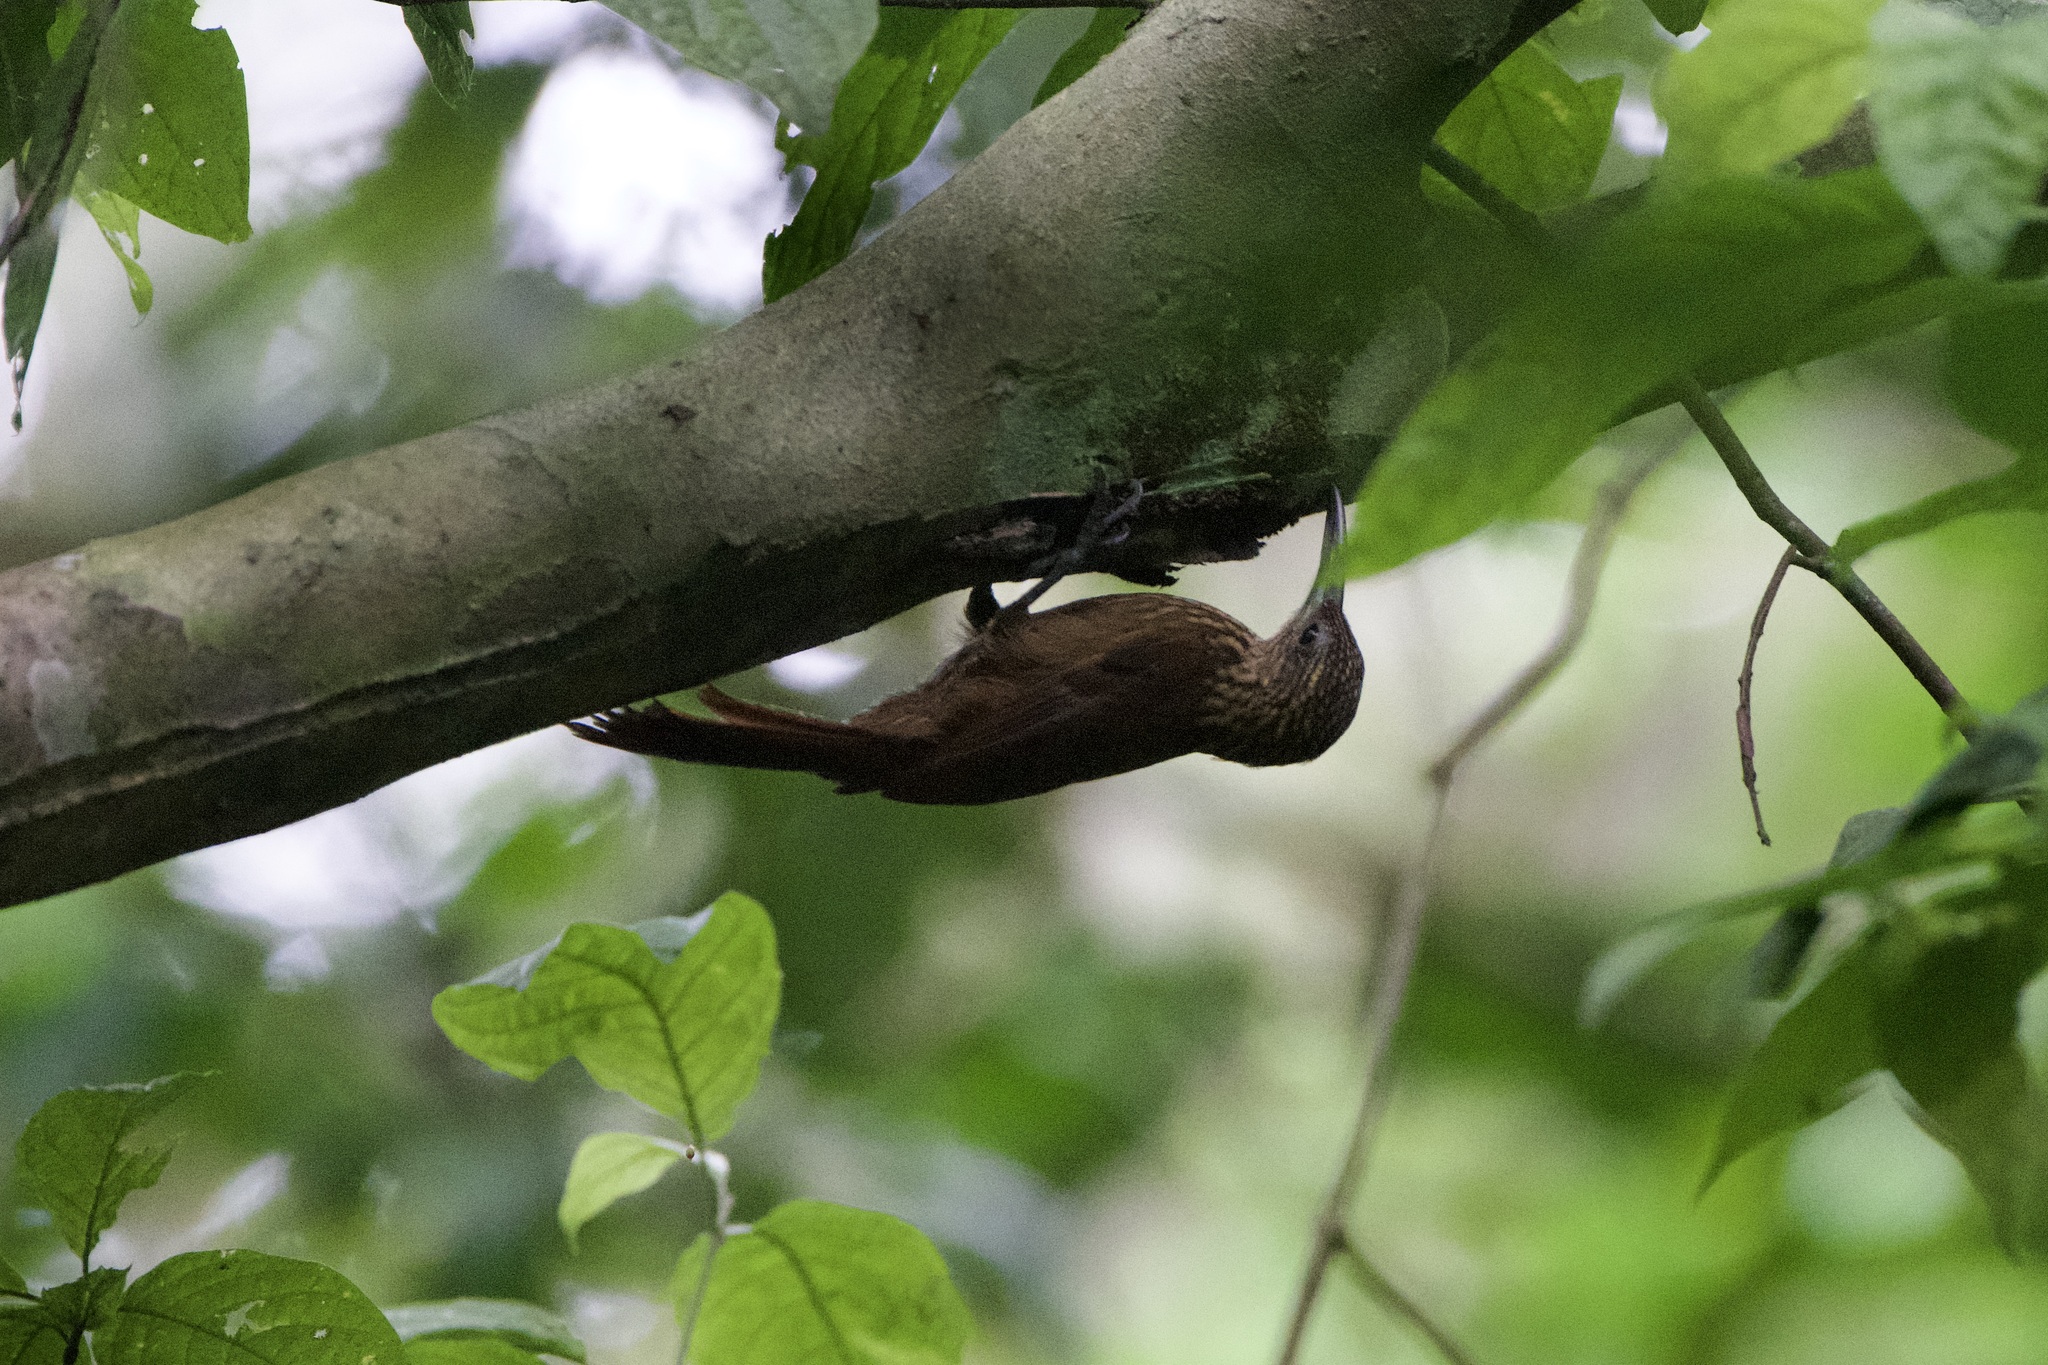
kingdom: Animalia
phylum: Chordata
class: Aves
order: Passeriformes
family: Furnariidae
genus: Xiphorhynchus
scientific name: Xiphorhynchus susurrans
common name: Cocoa woodcreeper
